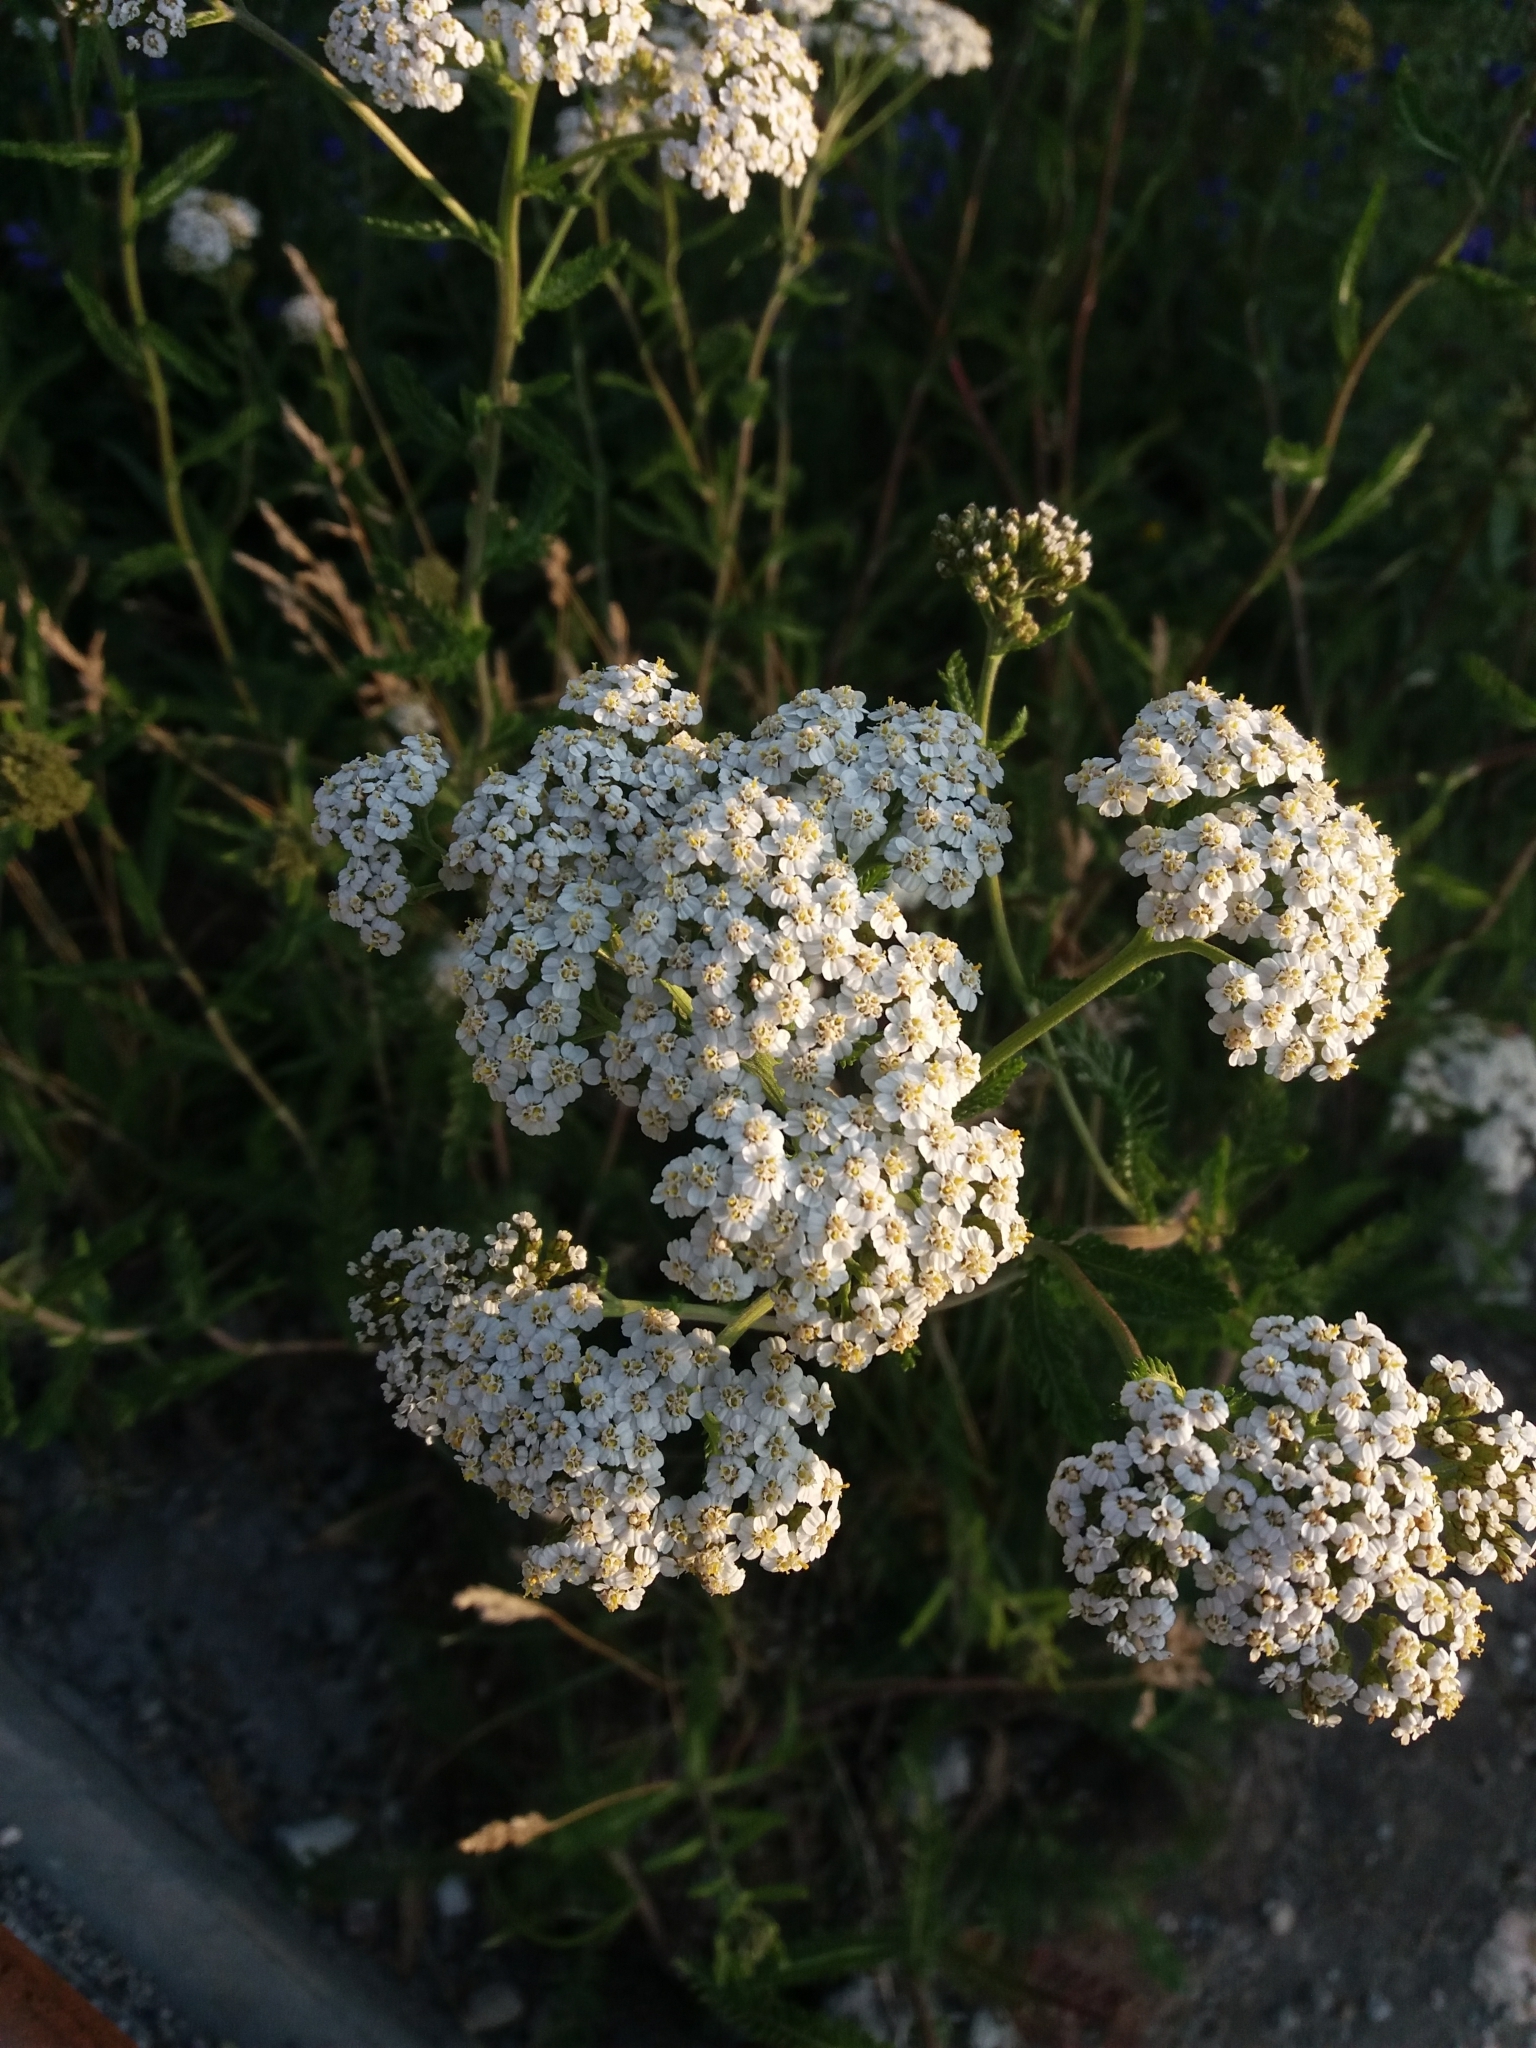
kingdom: Plantae
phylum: Tracheophyta
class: Magnoliopsida
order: Asterales
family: Asteraceae
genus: Achillea
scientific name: Achillea millefolium
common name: Yarrow
